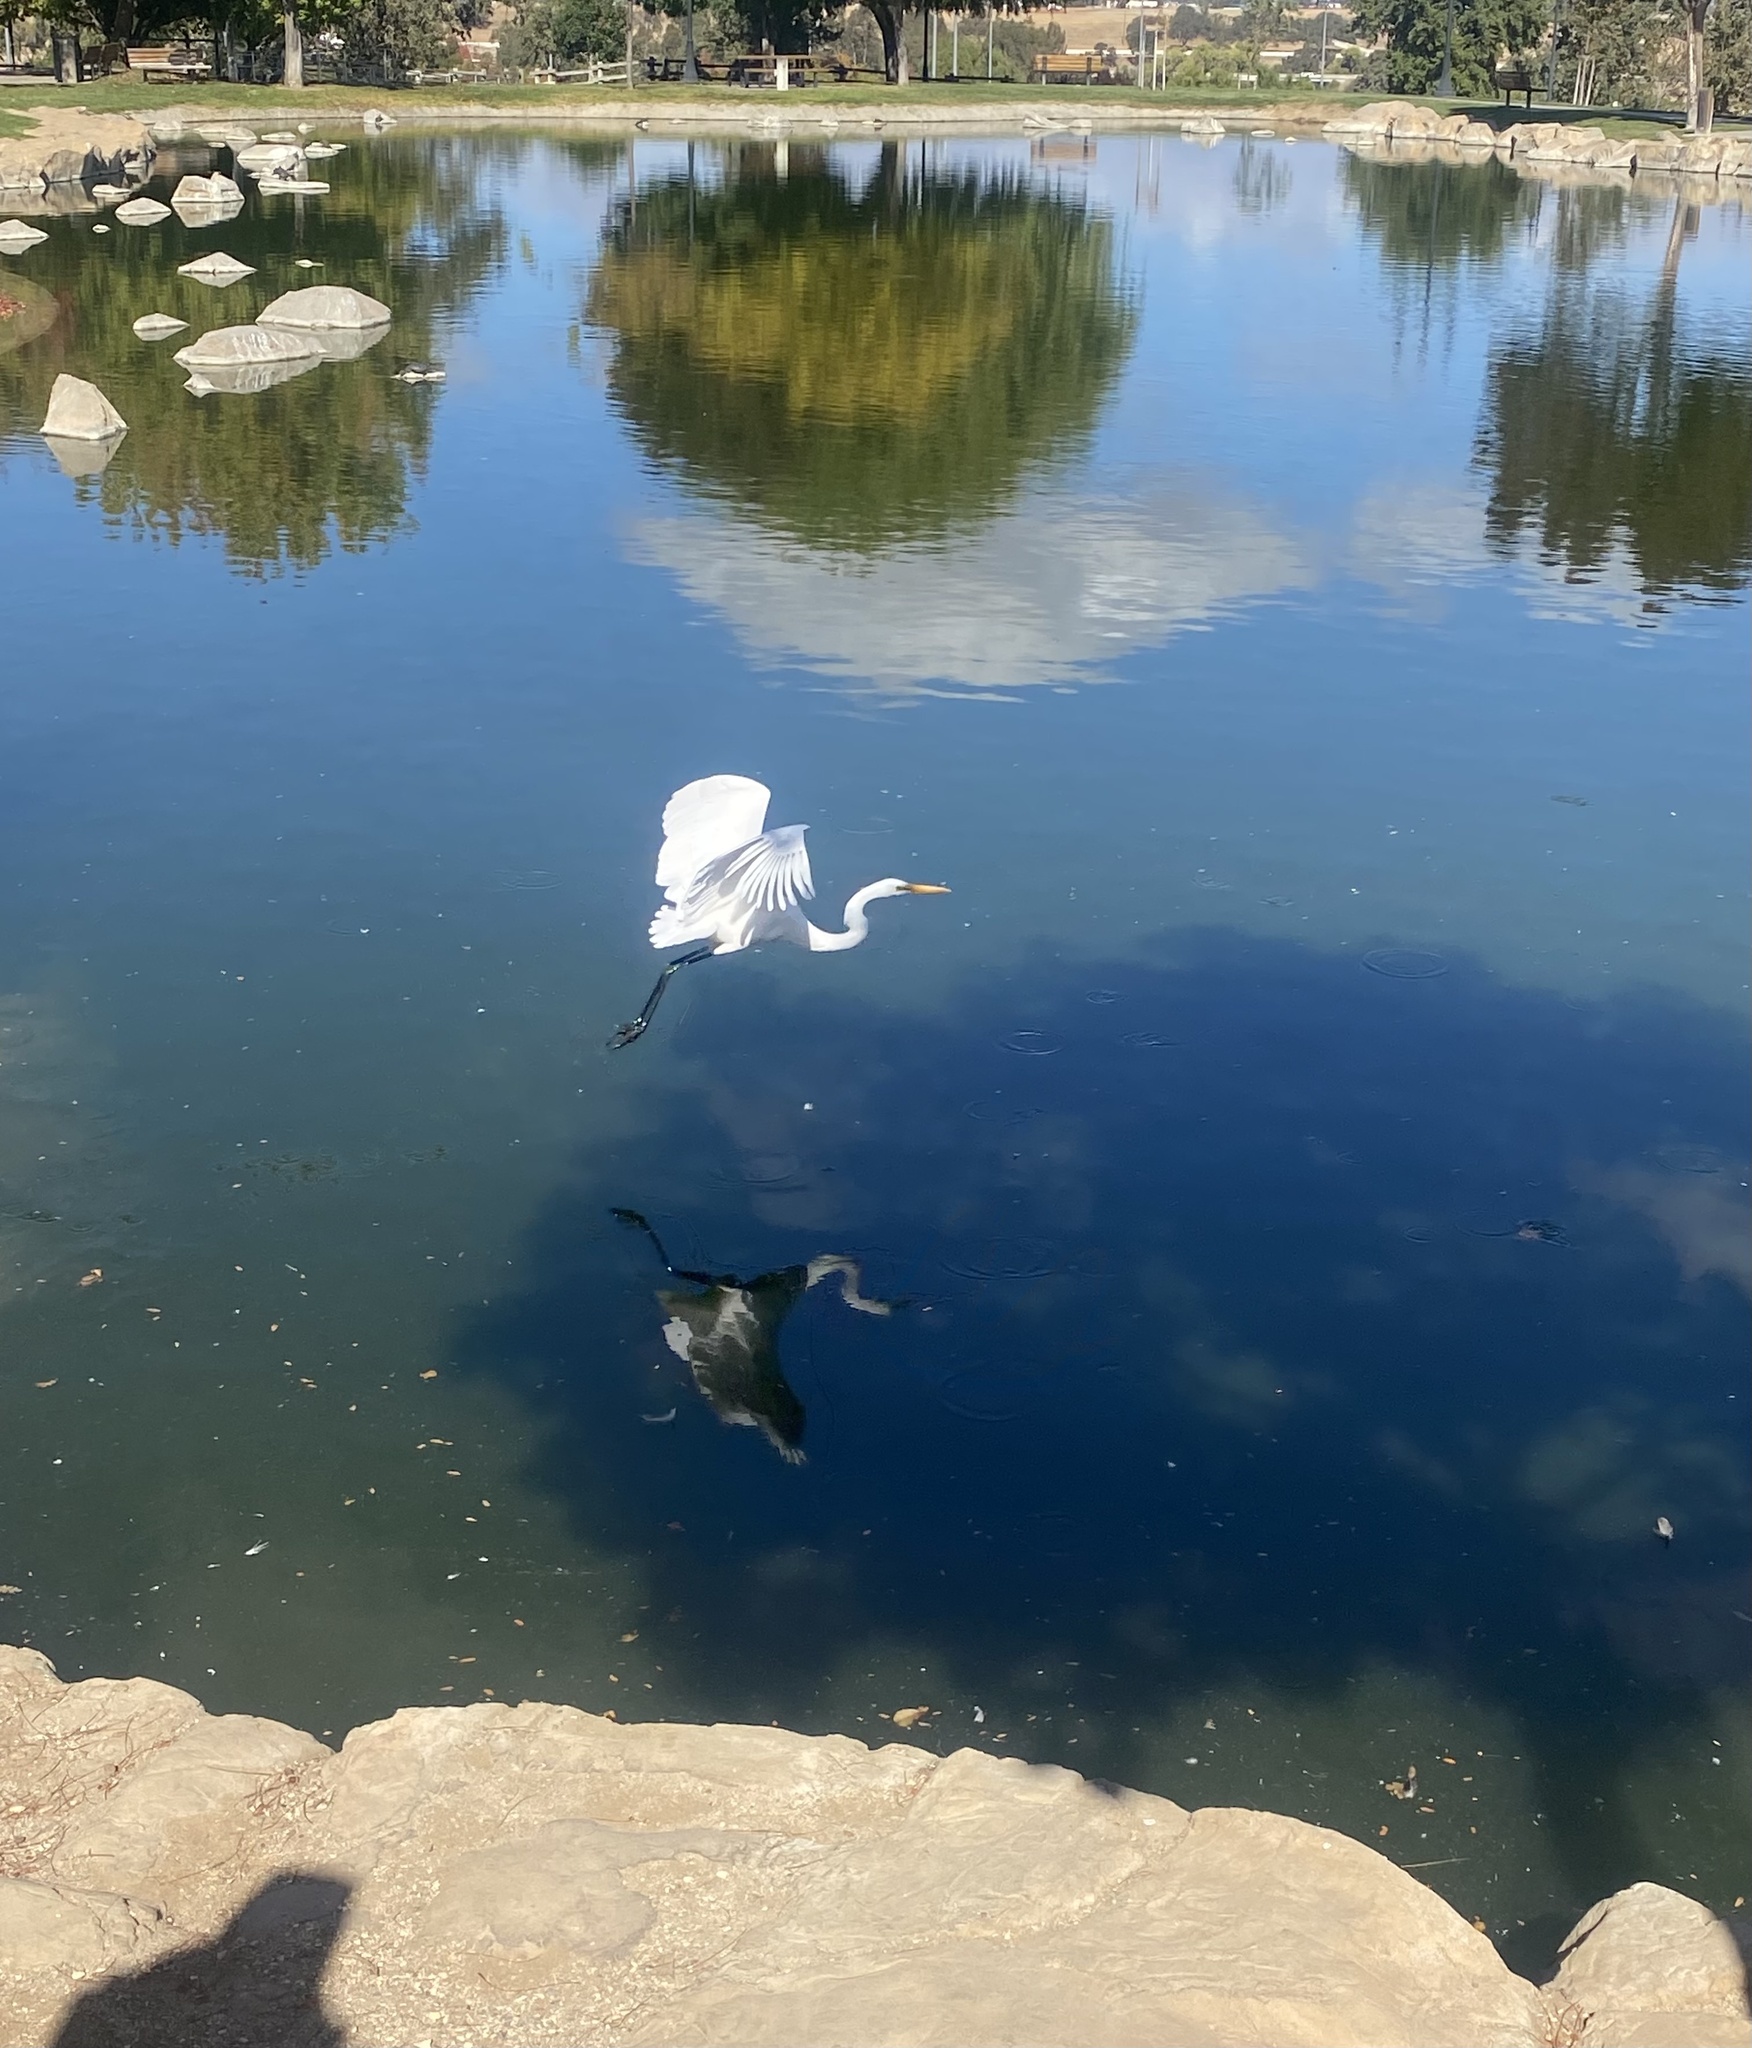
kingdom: Animalia
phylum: Chordata
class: Aves
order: Pelecaniformes
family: Ardeidae
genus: Ardea
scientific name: Ardea alba
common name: Great egret
